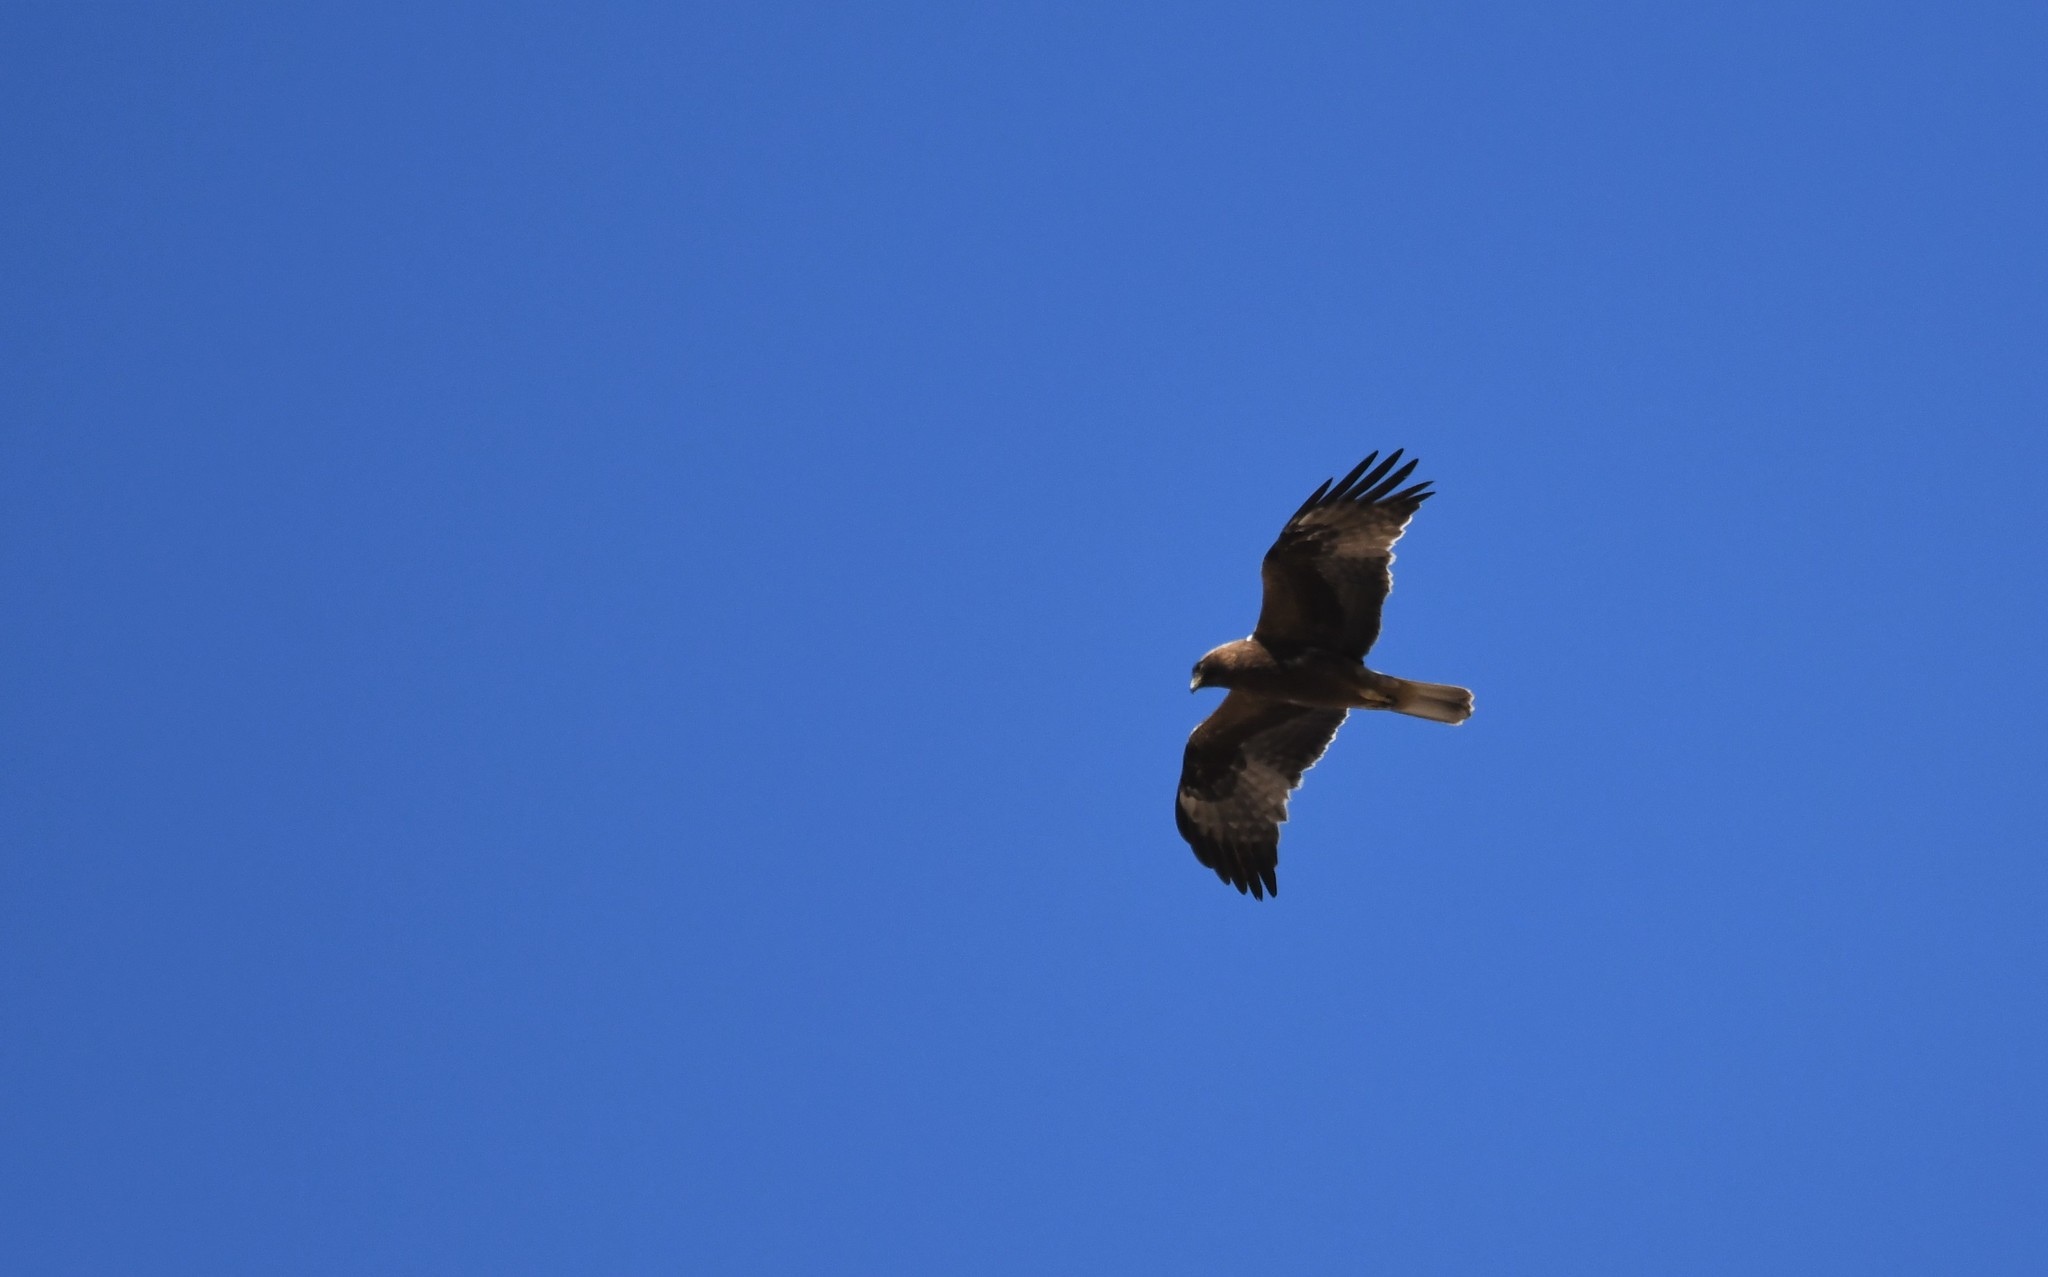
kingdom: Animalia
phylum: Chordata
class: Aves
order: Accipitriformes
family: Accipitridae
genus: Hieraaetus
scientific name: Hieraaetus pennatus
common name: Booted eagle
